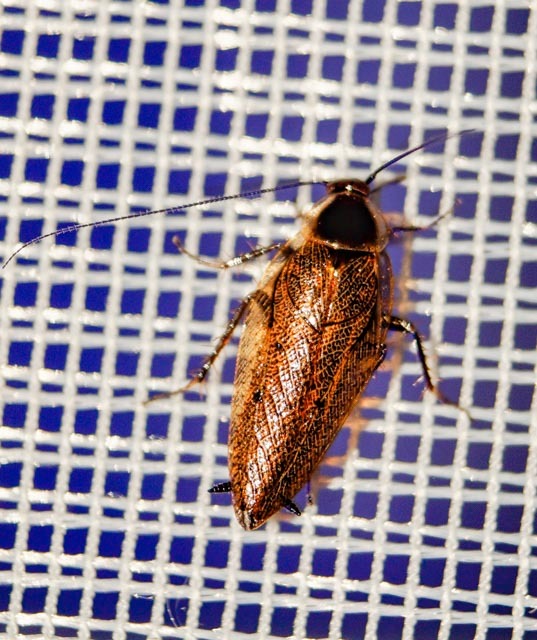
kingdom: Animalia
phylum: Arthropoda
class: Insecta
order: Blattodea
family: Ectobiidae
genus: Ectobius
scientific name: Ectobius lapponicus
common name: Dusky cockroach
